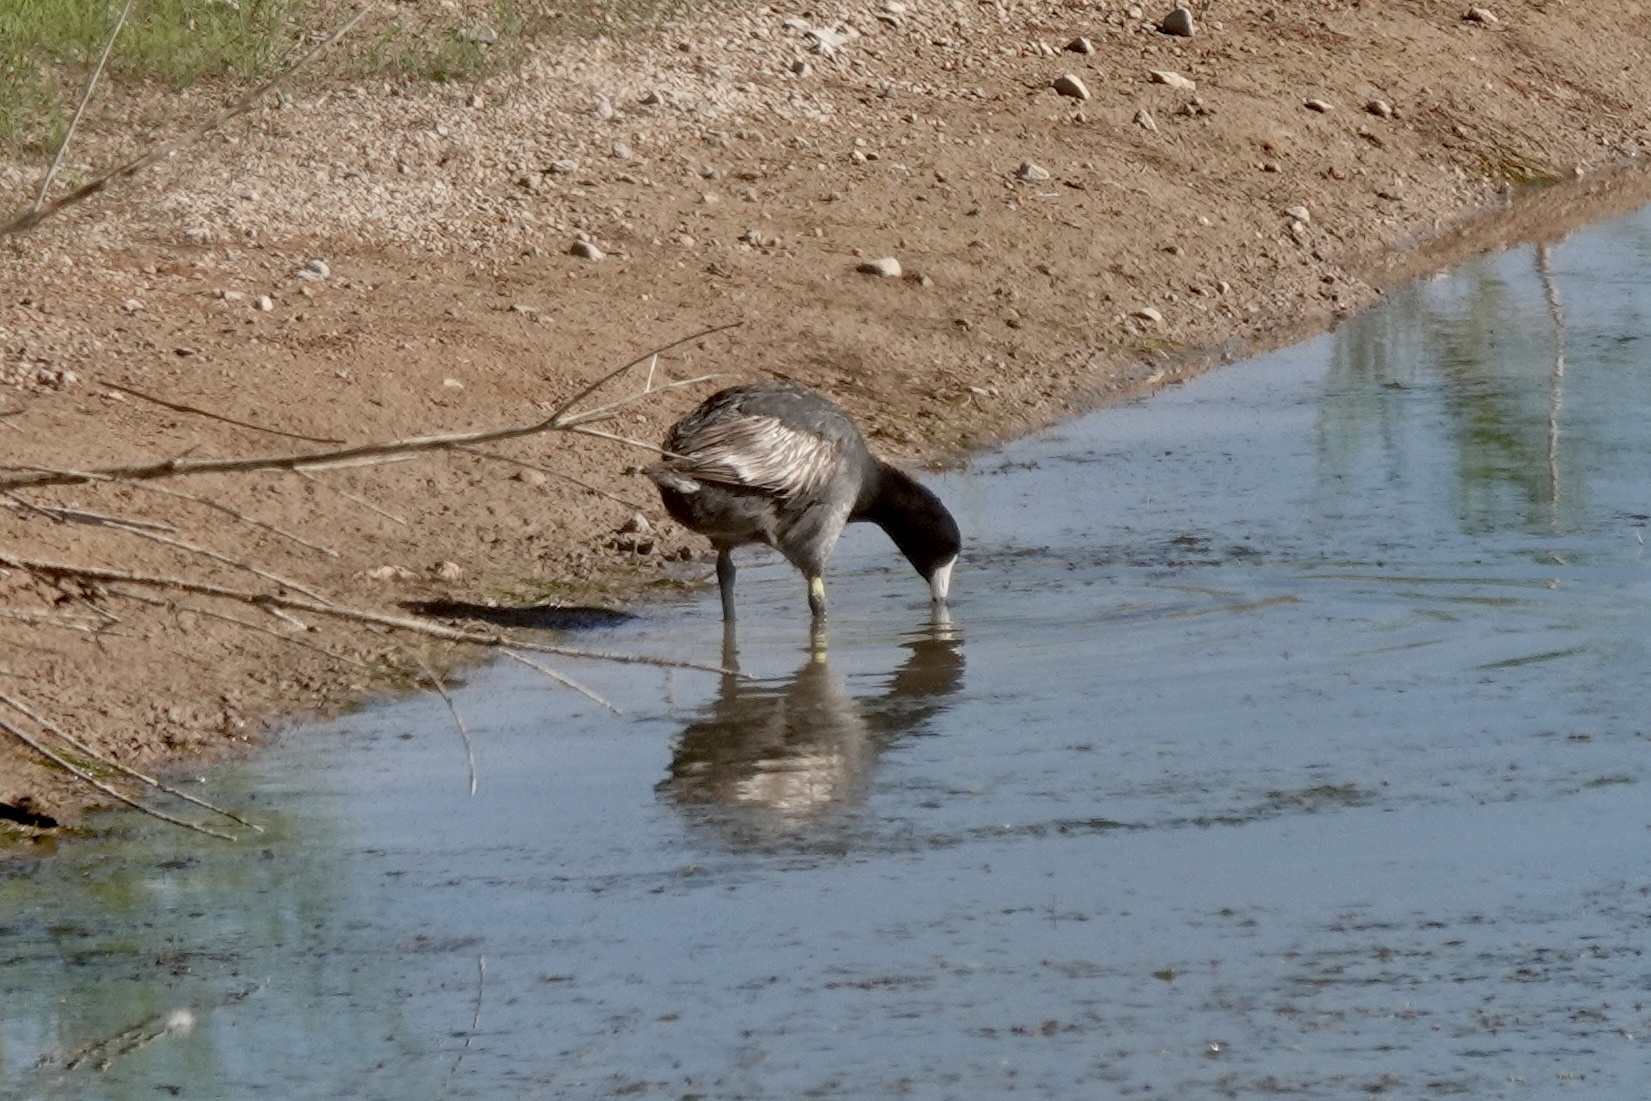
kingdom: Animalia
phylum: Chordata
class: Aves
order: Gruiformes
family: Rallidae
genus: Fulica
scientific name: Fulica americana
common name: American coot
